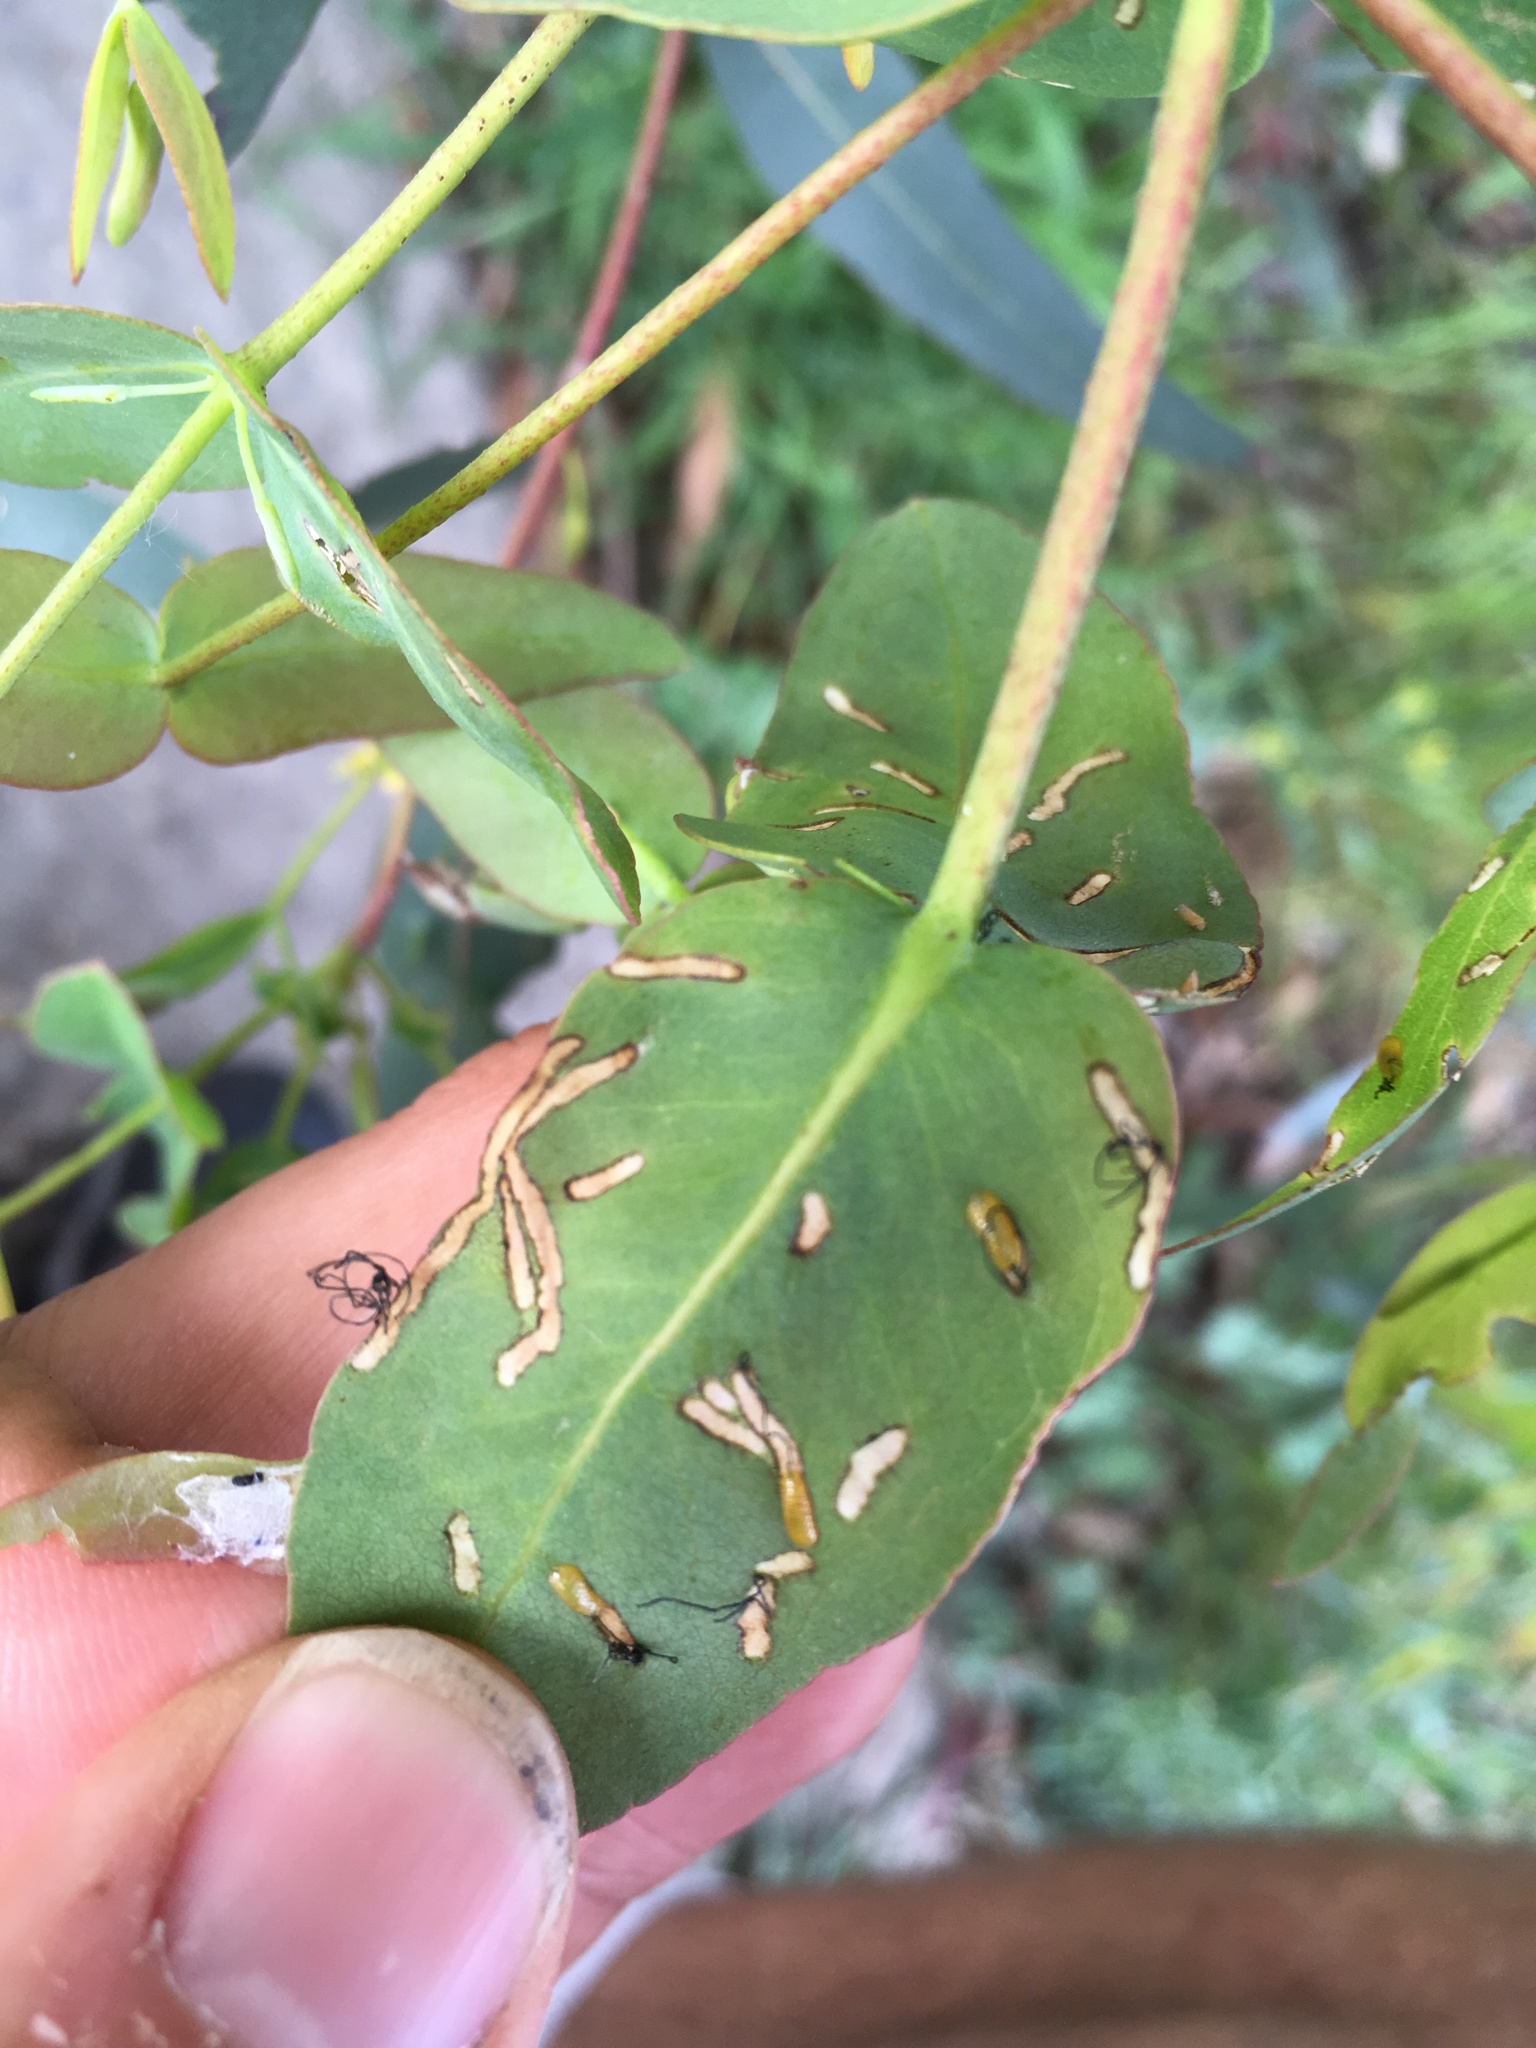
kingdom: Animalia
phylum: Arthropoda
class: Insecta
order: Coleoptera
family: Curculionidae
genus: Gonipterus
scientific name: Gonipterus platensis
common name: Eucalyptus snout beetle
